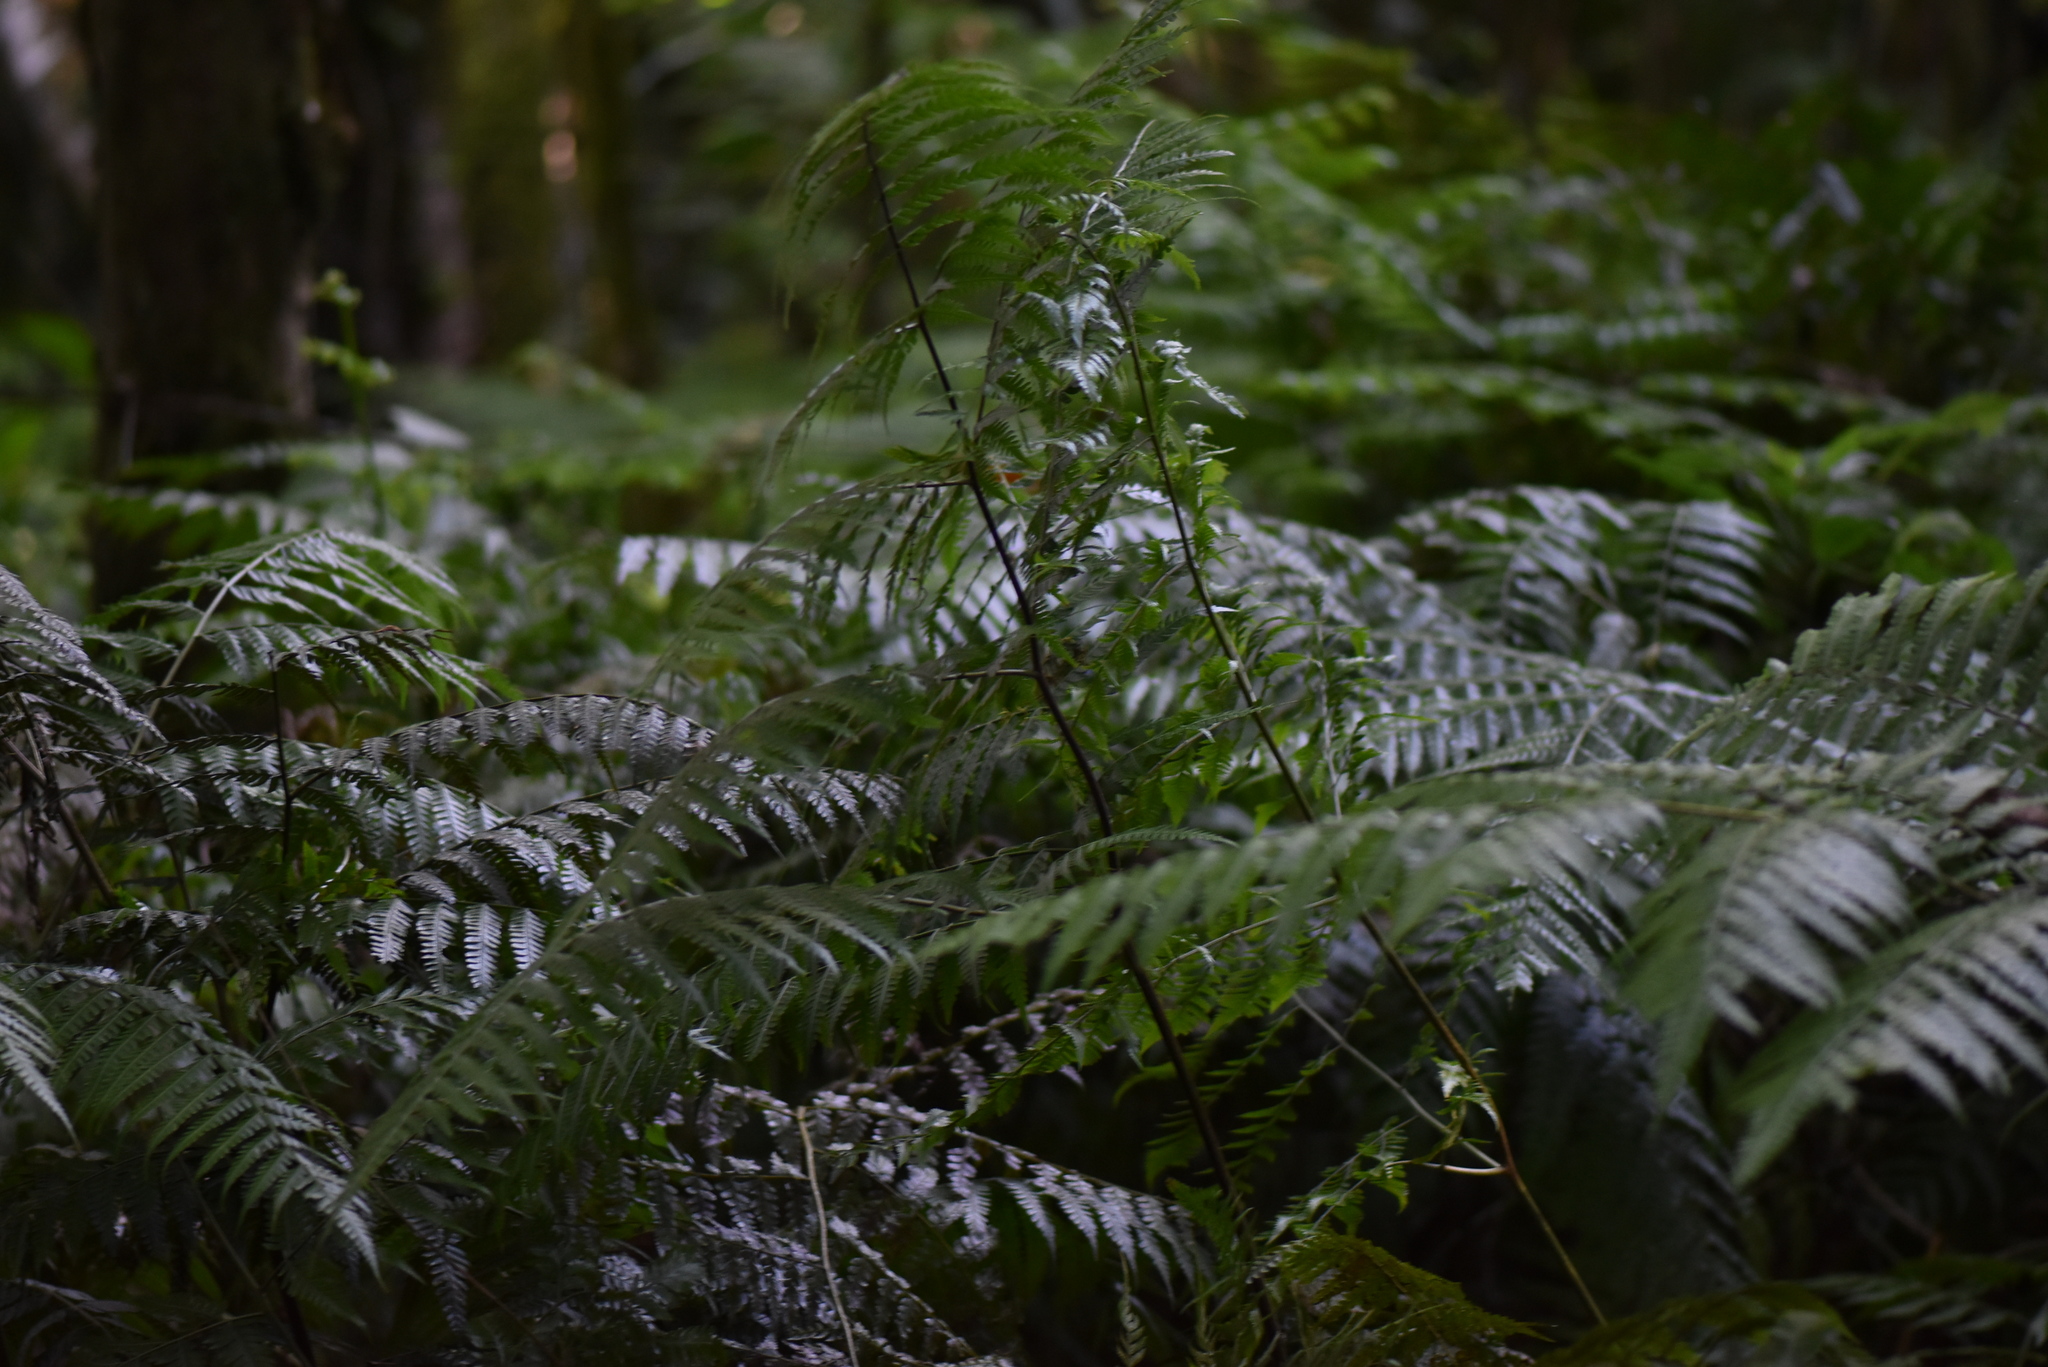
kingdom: Plantae
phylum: Tracheophyta
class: Polypodiopsida
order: Polypodiales
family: Pteridaceae
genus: Pteris
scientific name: Pteris deflexa
